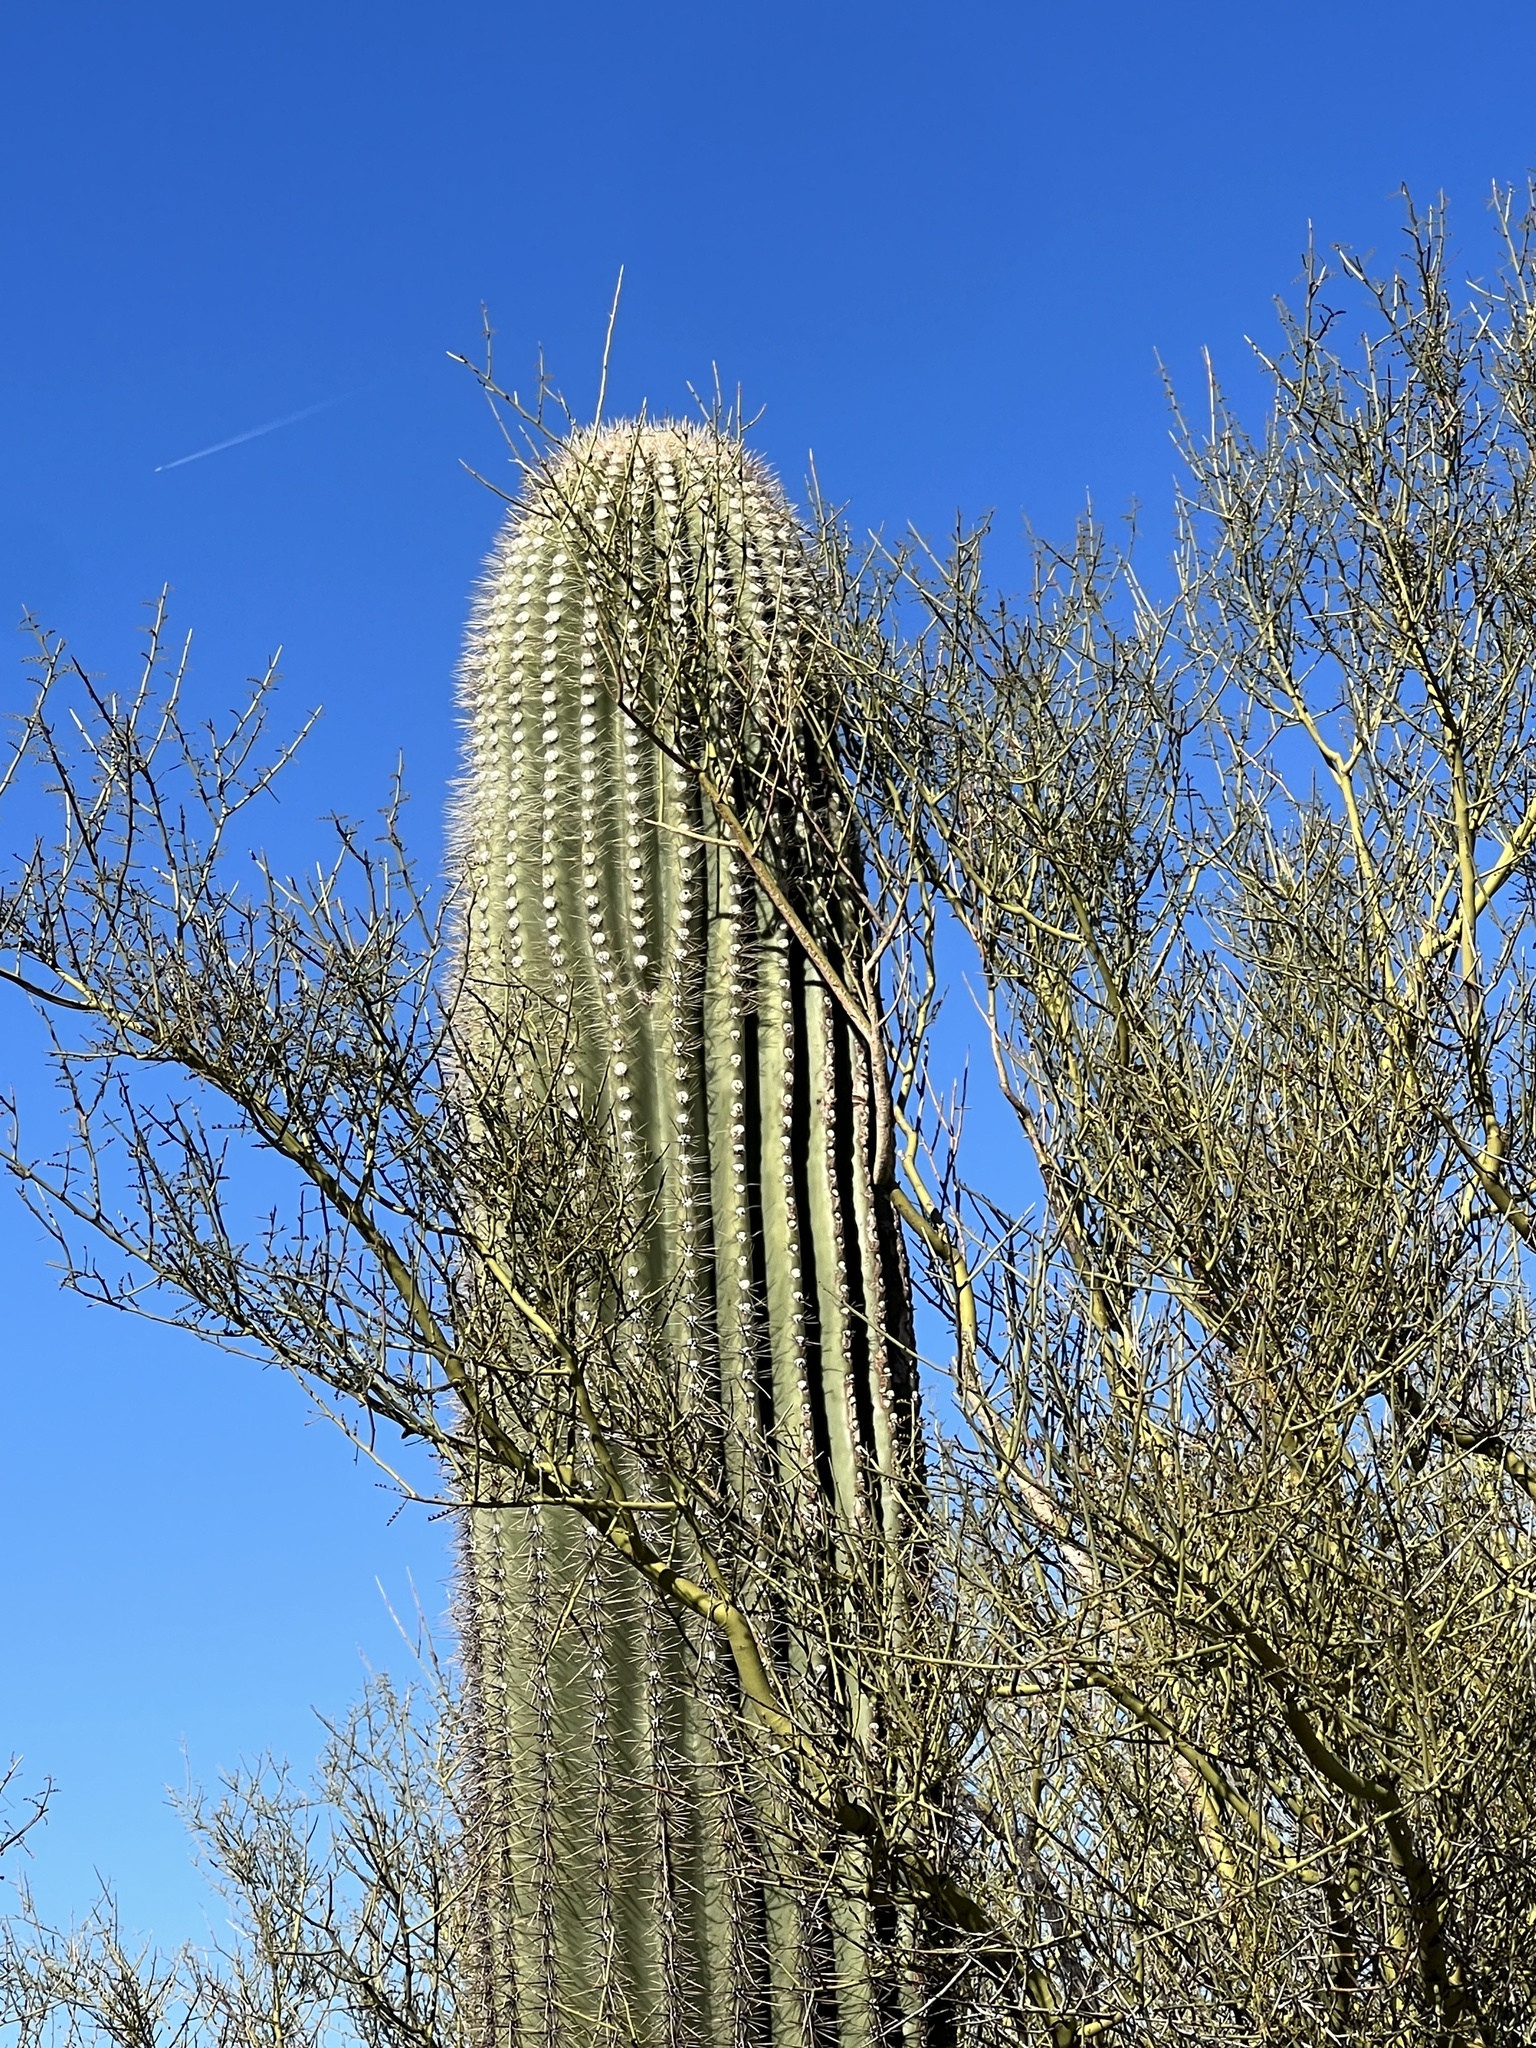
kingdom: Plantae
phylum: Tracheophyta
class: Magnoliopsida
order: Caryophyllales
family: Cactaceae
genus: Carnegiea
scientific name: Carnegiea gigantea
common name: Saguaro
